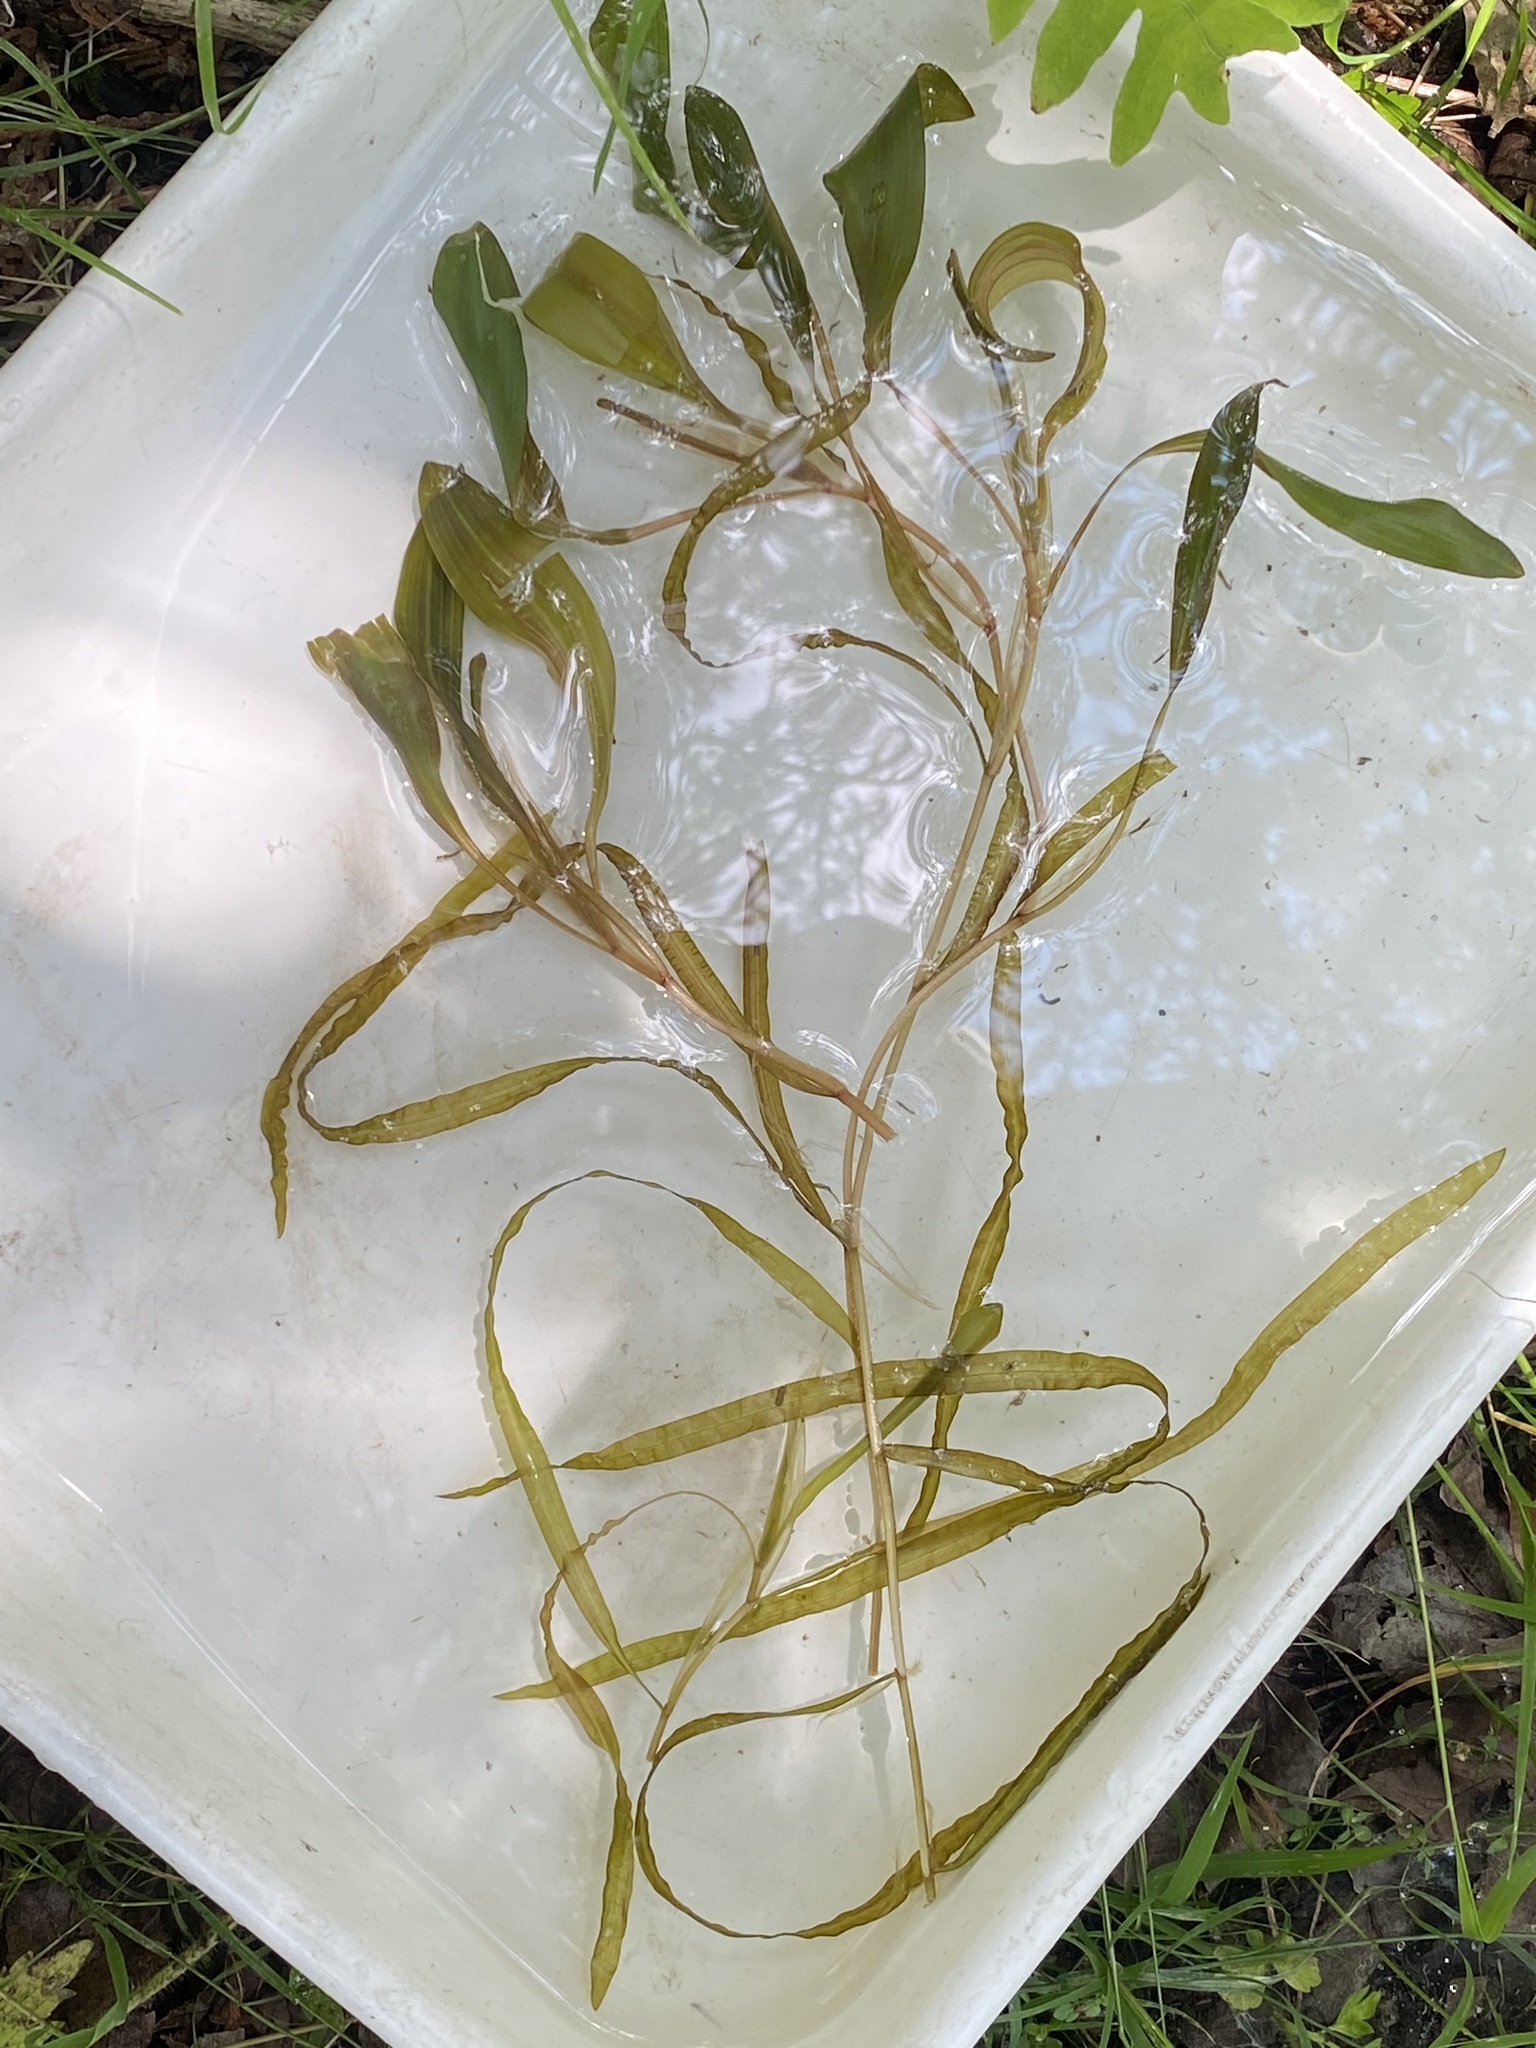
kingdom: Plantae
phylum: Tracheophyta
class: Liliopsida
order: Alismatales
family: Potamogetonaceae
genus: Potamogeton
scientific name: Potamogeton epihydrus
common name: American pondweed
